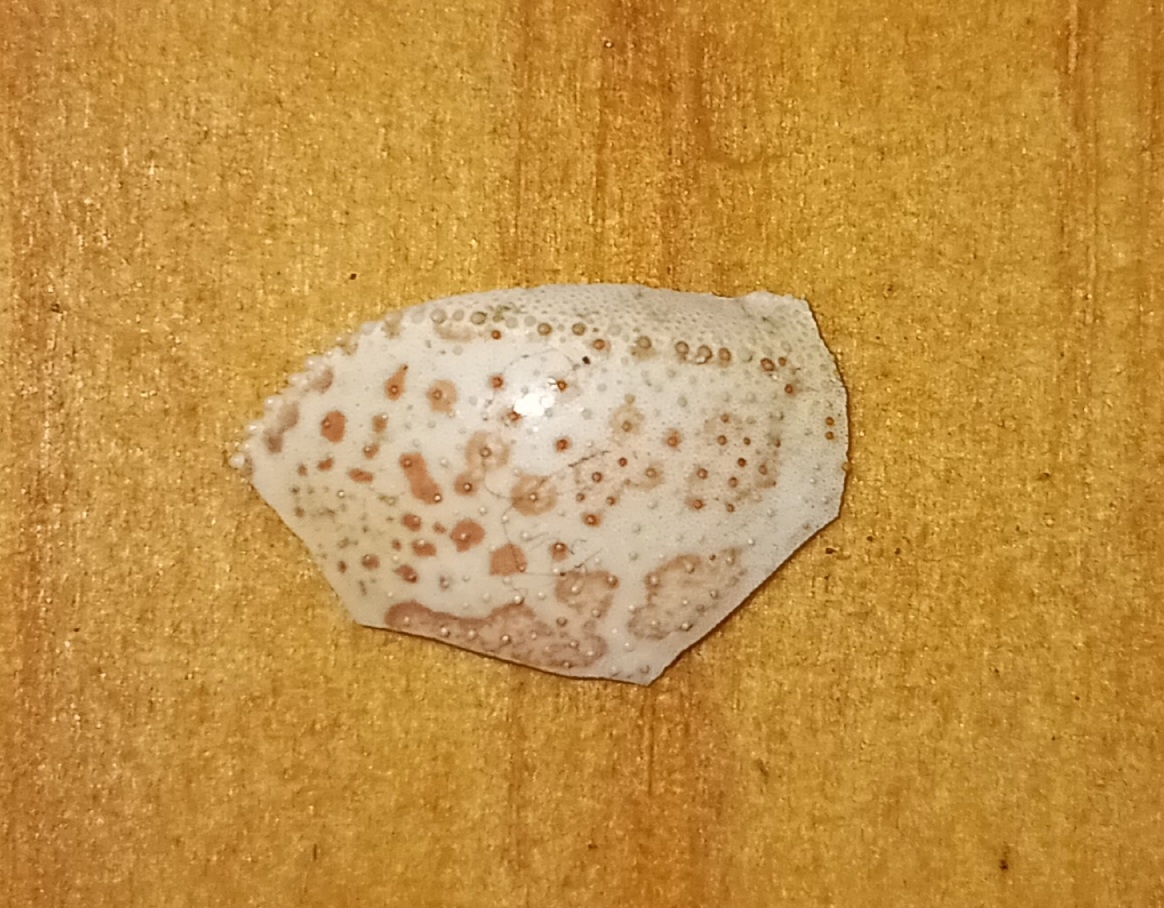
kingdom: Animalia
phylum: Arthropoda
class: Malacostraca
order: Decapoda
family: Leucosiidae
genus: Persephona
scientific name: Persephona aquilonaris
